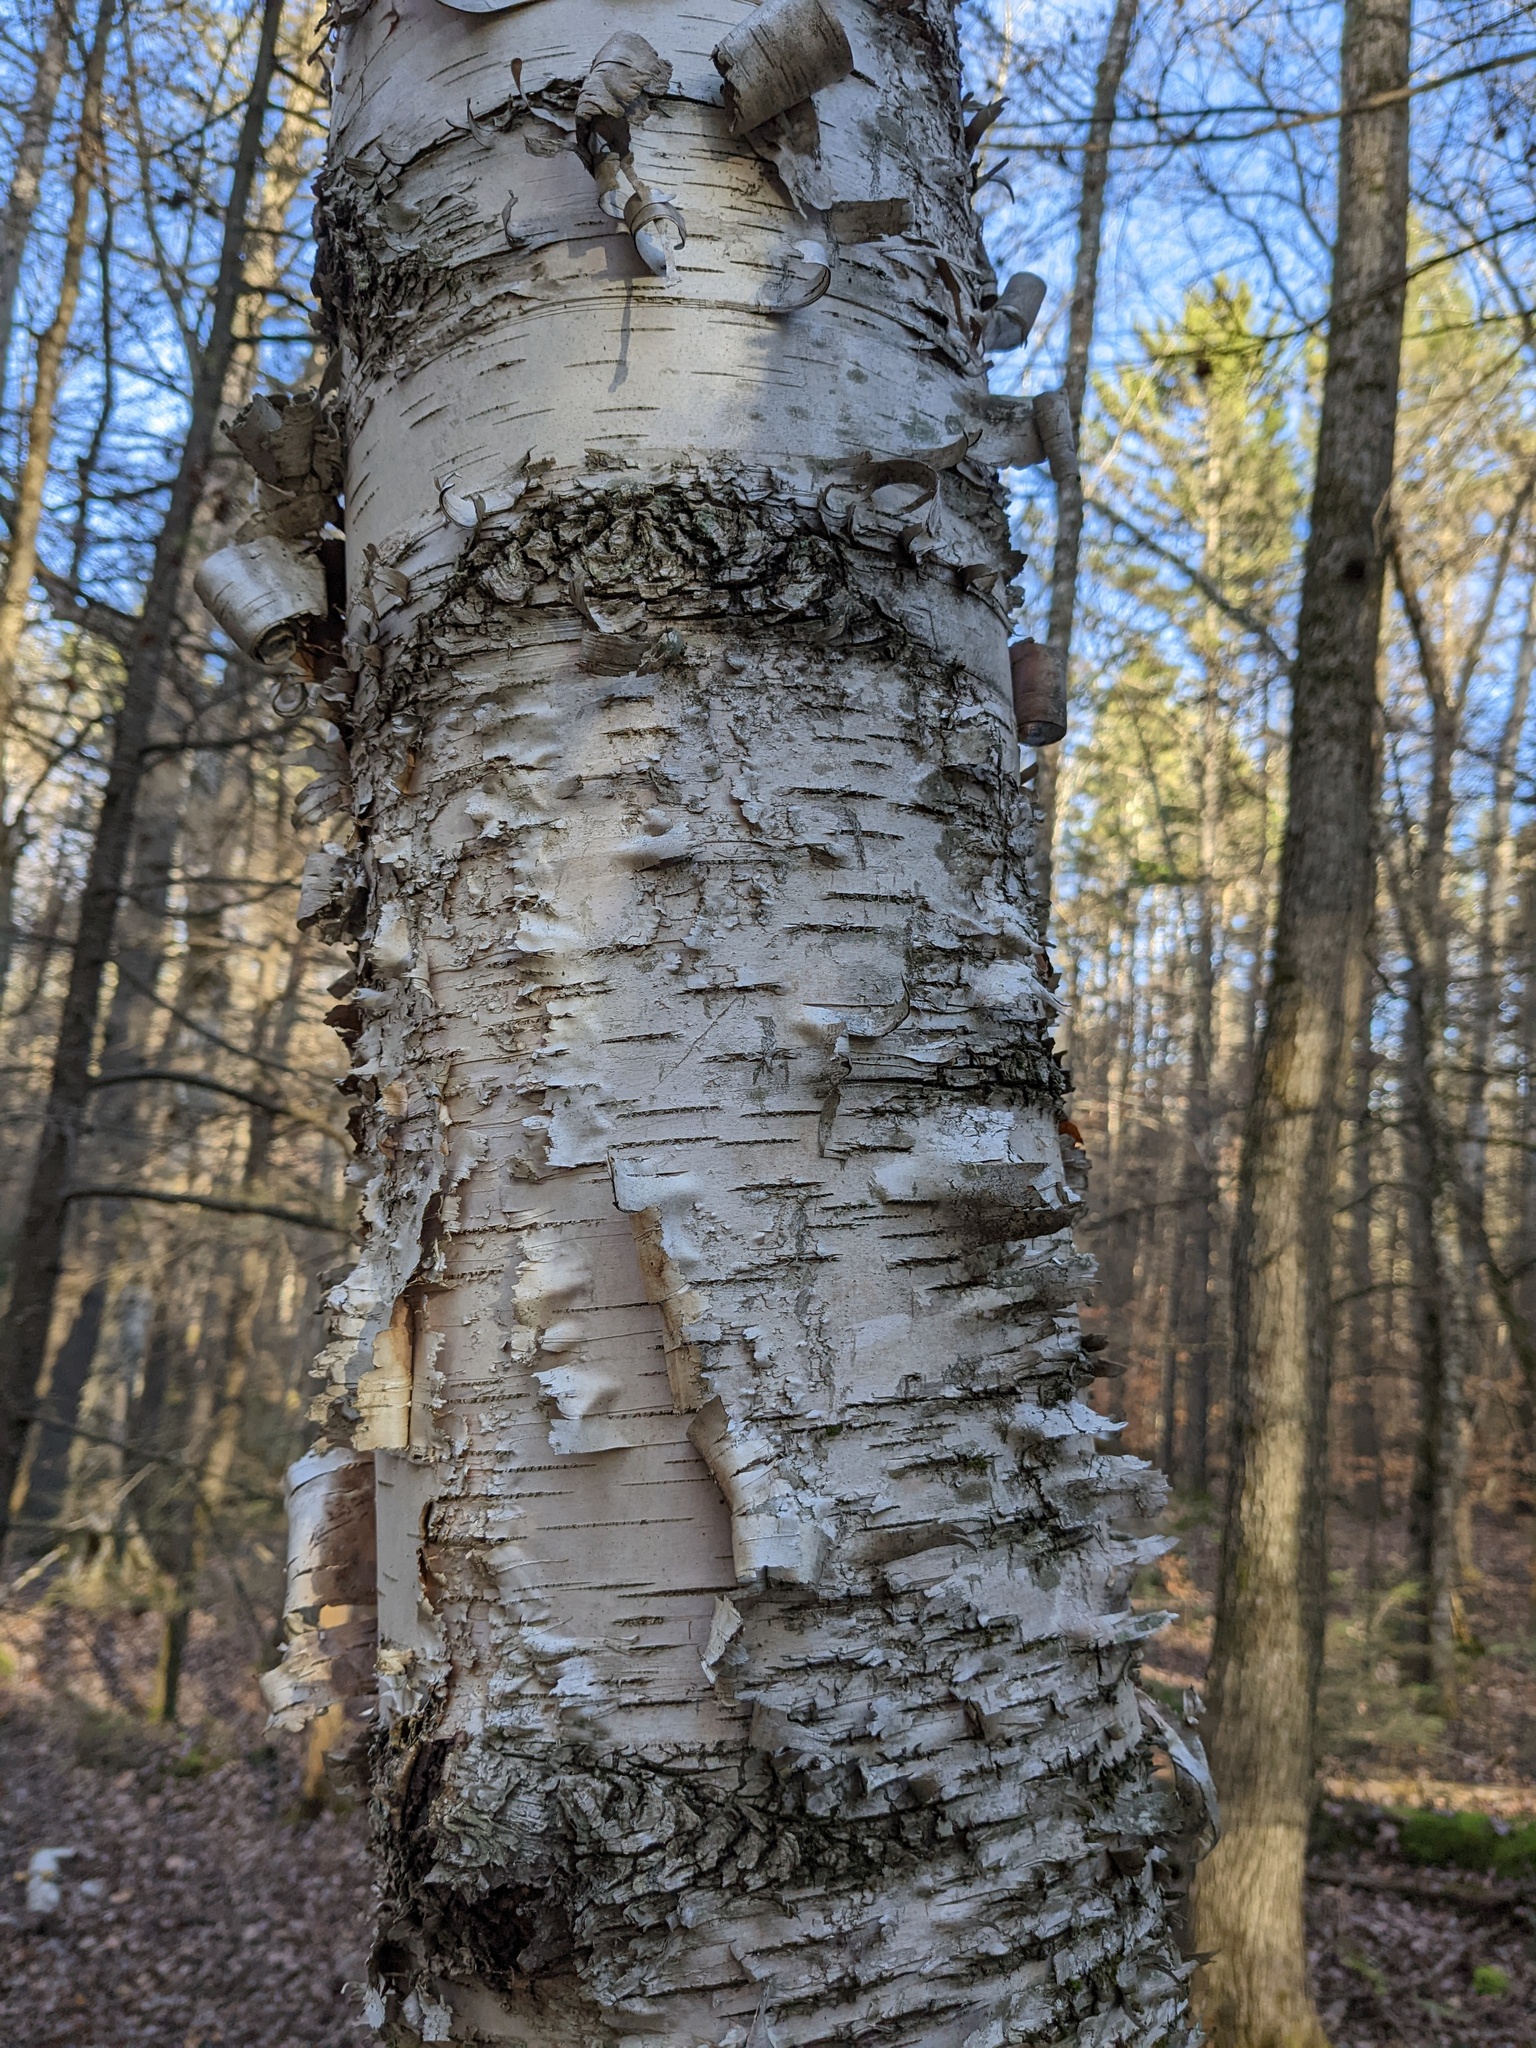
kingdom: Plantae
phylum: Tracheophyta
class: Magnoliopsida
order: Fagales
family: Betulaceae
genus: Betula
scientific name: Betula papyrifera
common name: Paper birch
